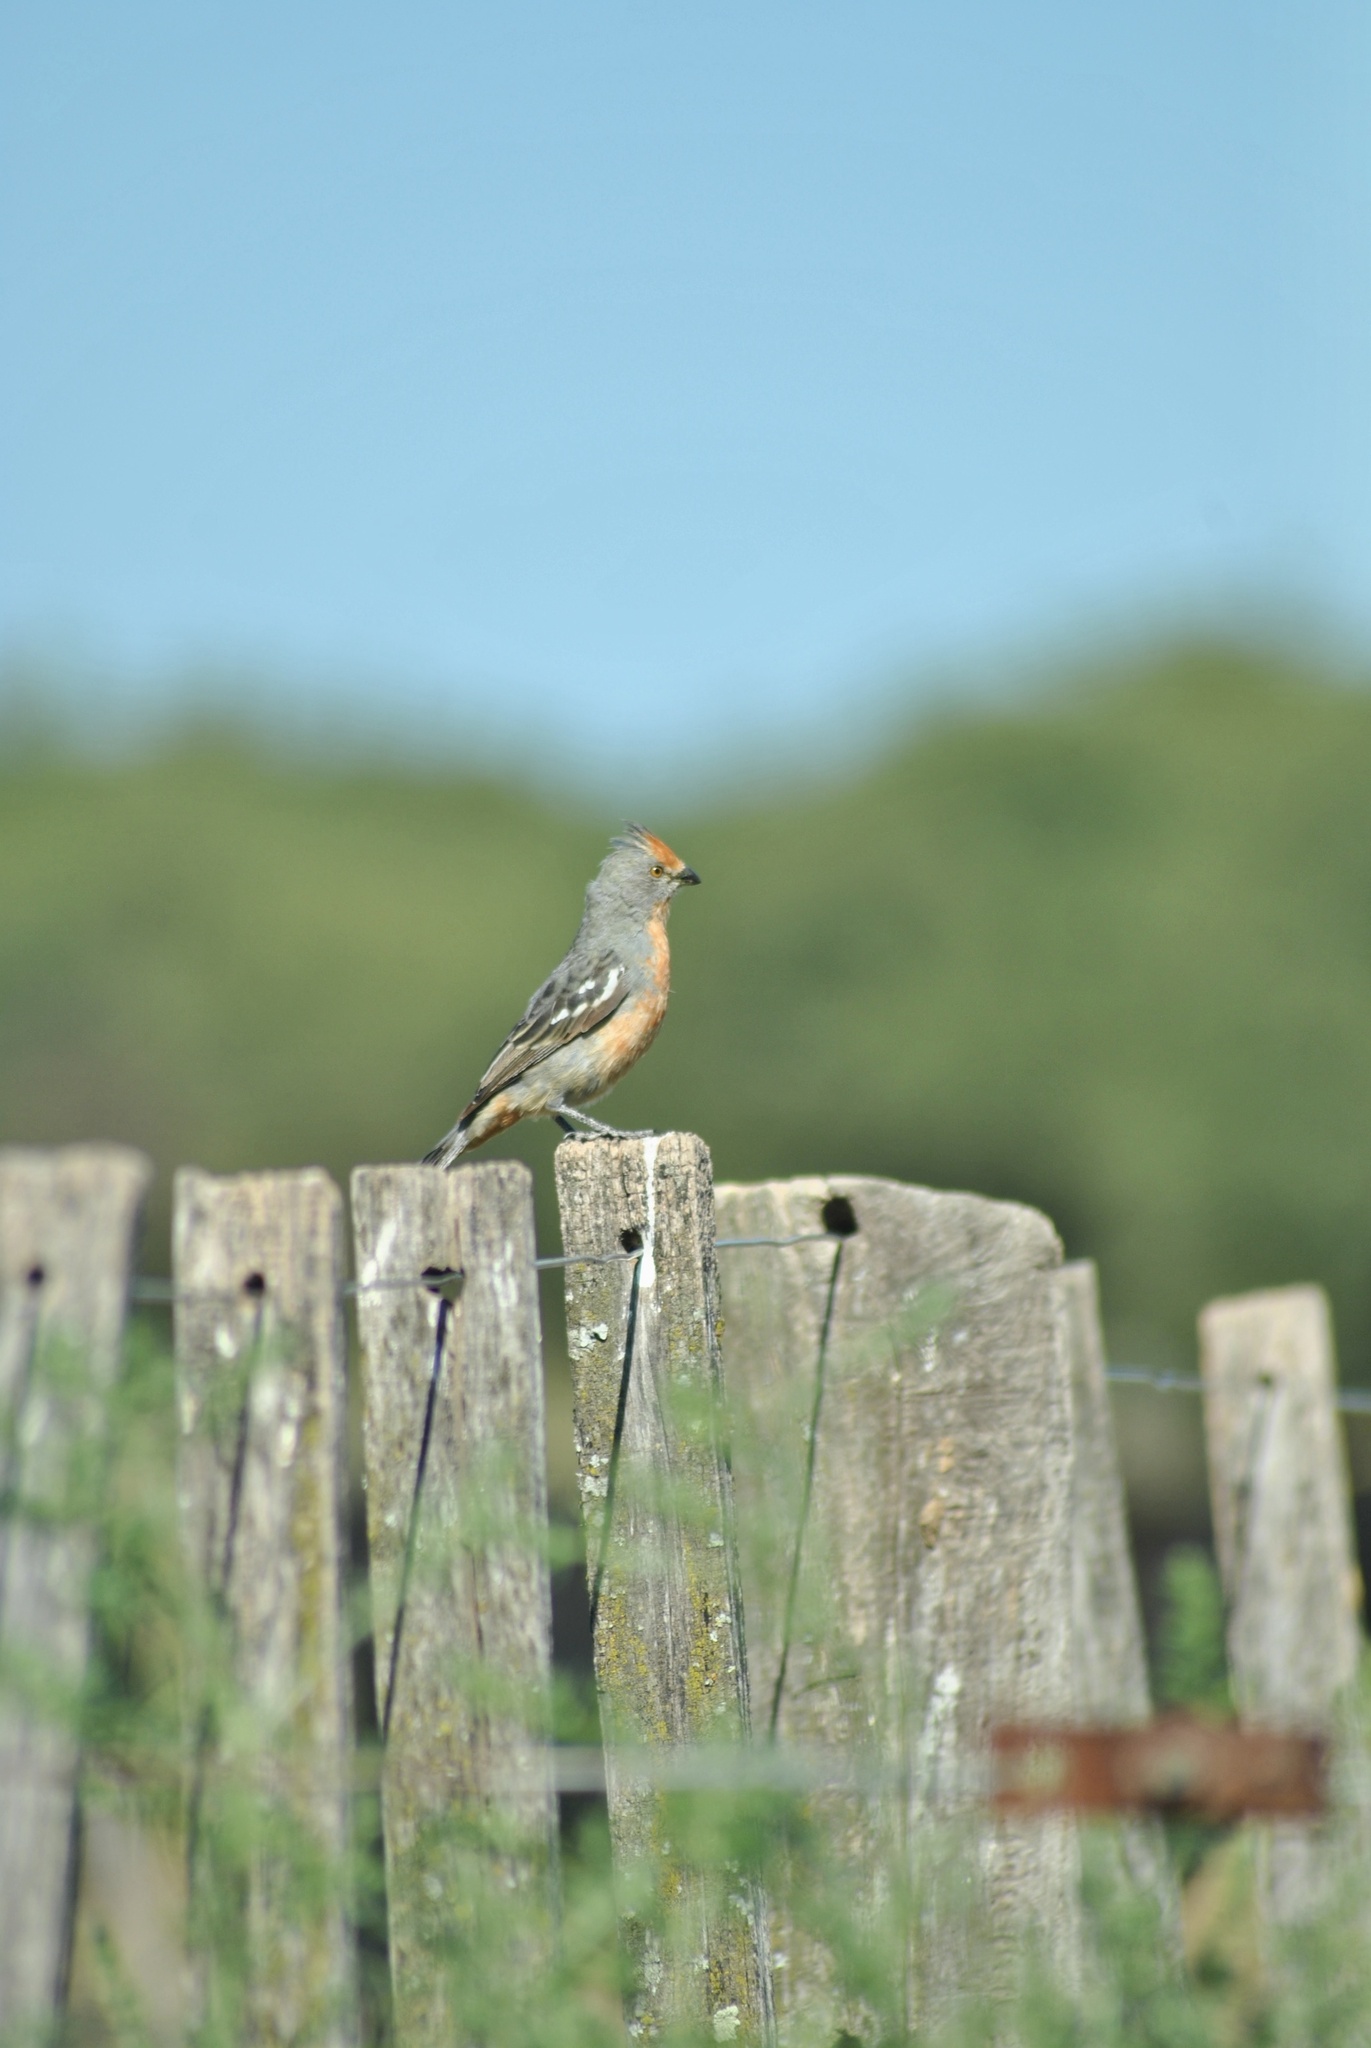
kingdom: Animalia
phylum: Chordata
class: Aves
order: Passeriformes
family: Cotingidae
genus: Phytotoma
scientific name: Phytotoma rutila
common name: White-tipped plantcutter
